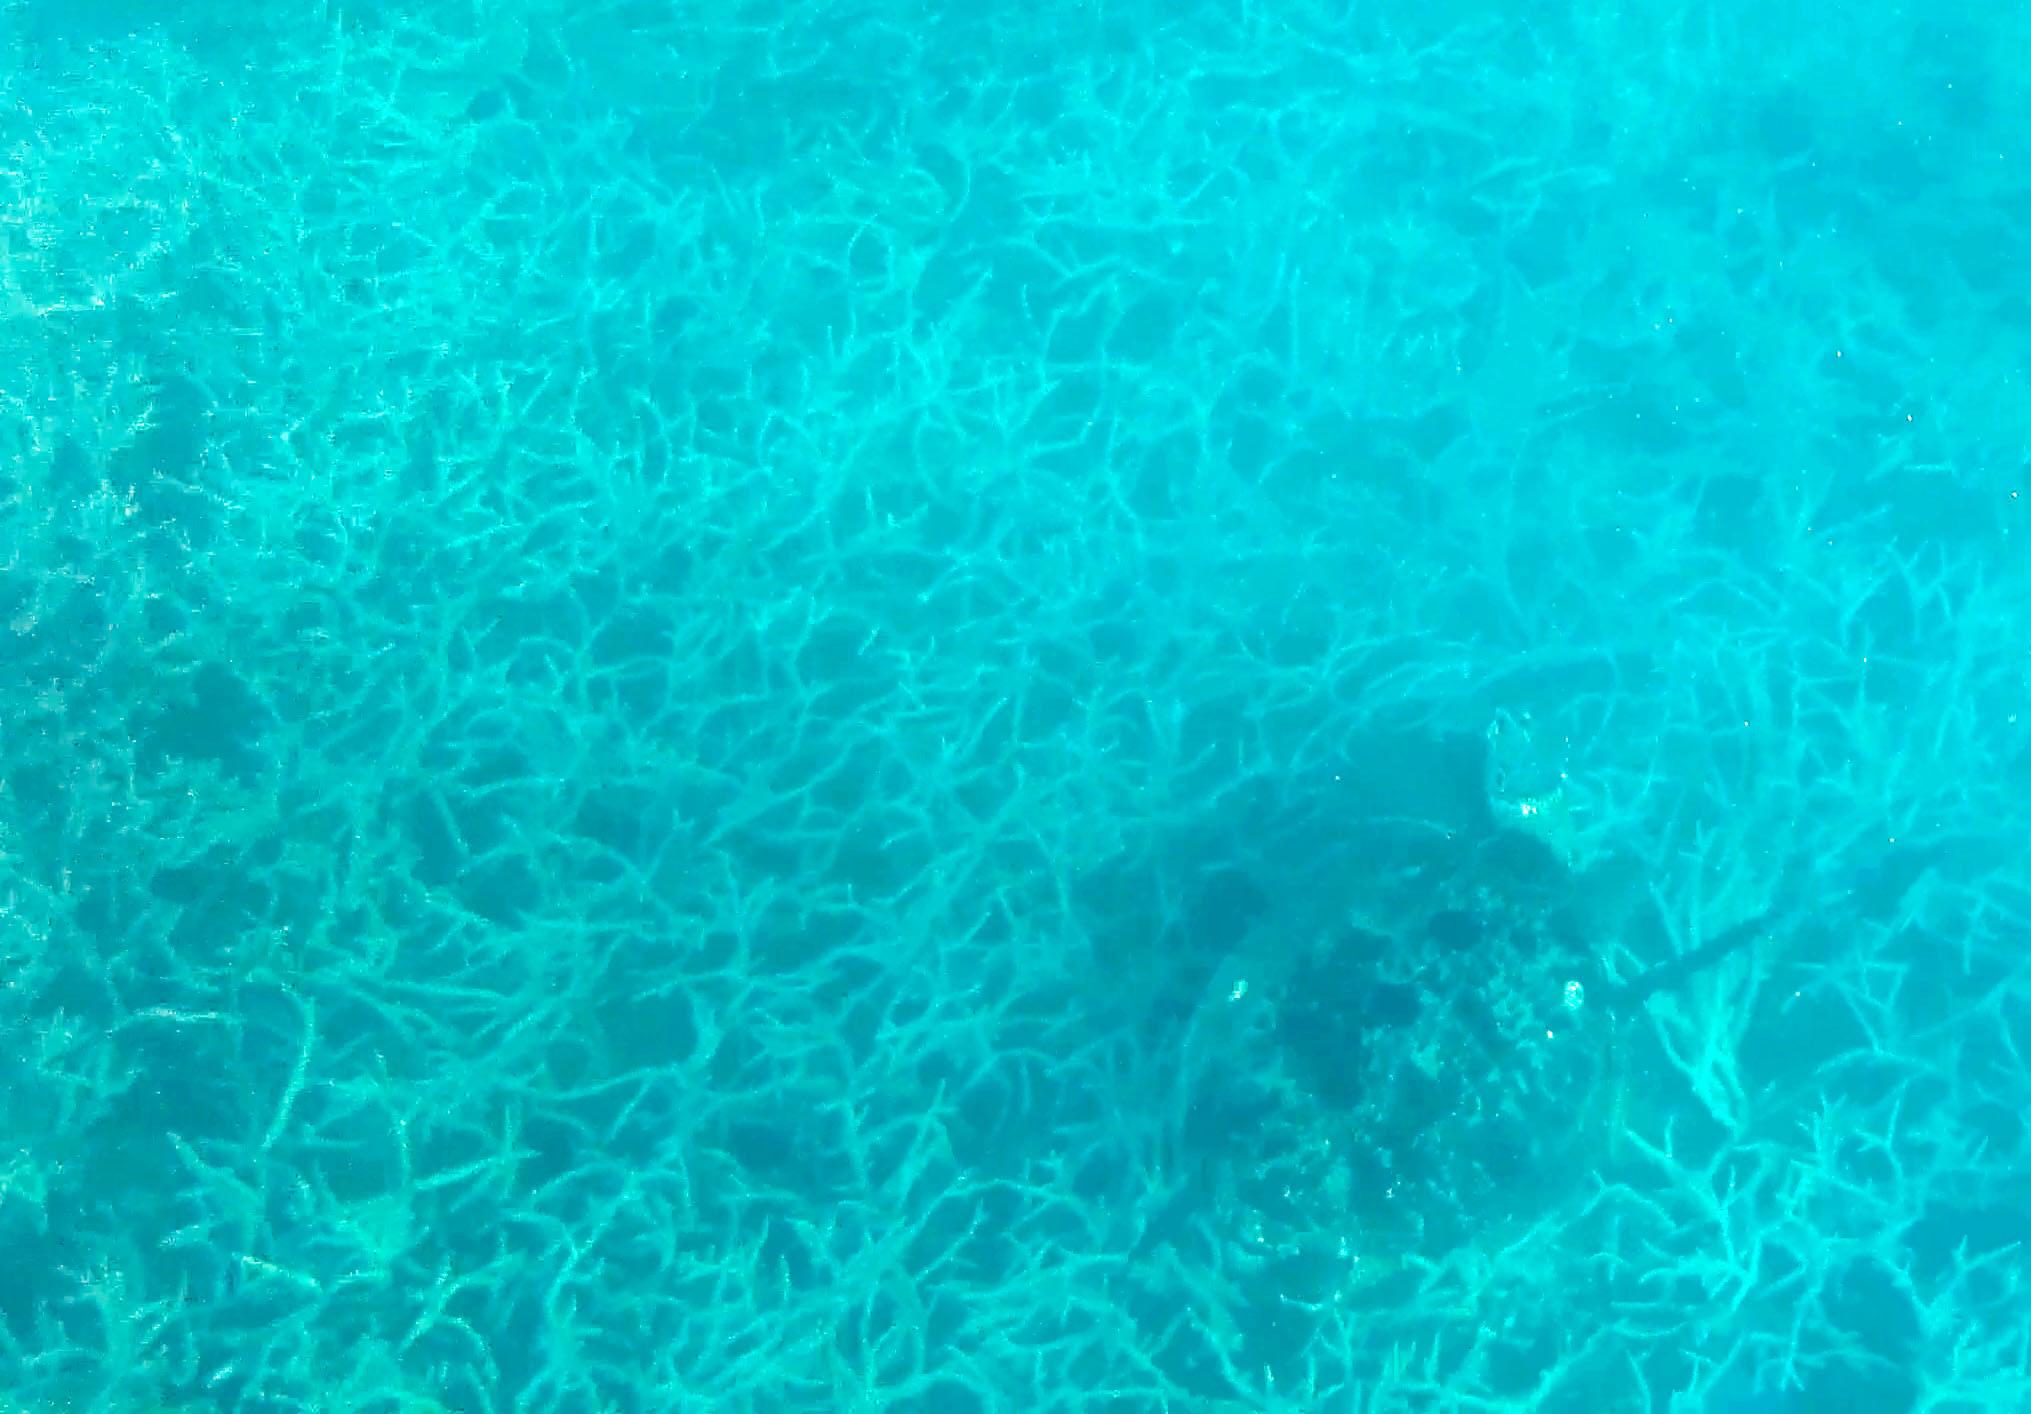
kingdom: Animalia
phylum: Chordata
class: Testudines
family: Cheloniidae
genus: Chelonia
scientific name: Chelonia mydas
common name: Green turtle
